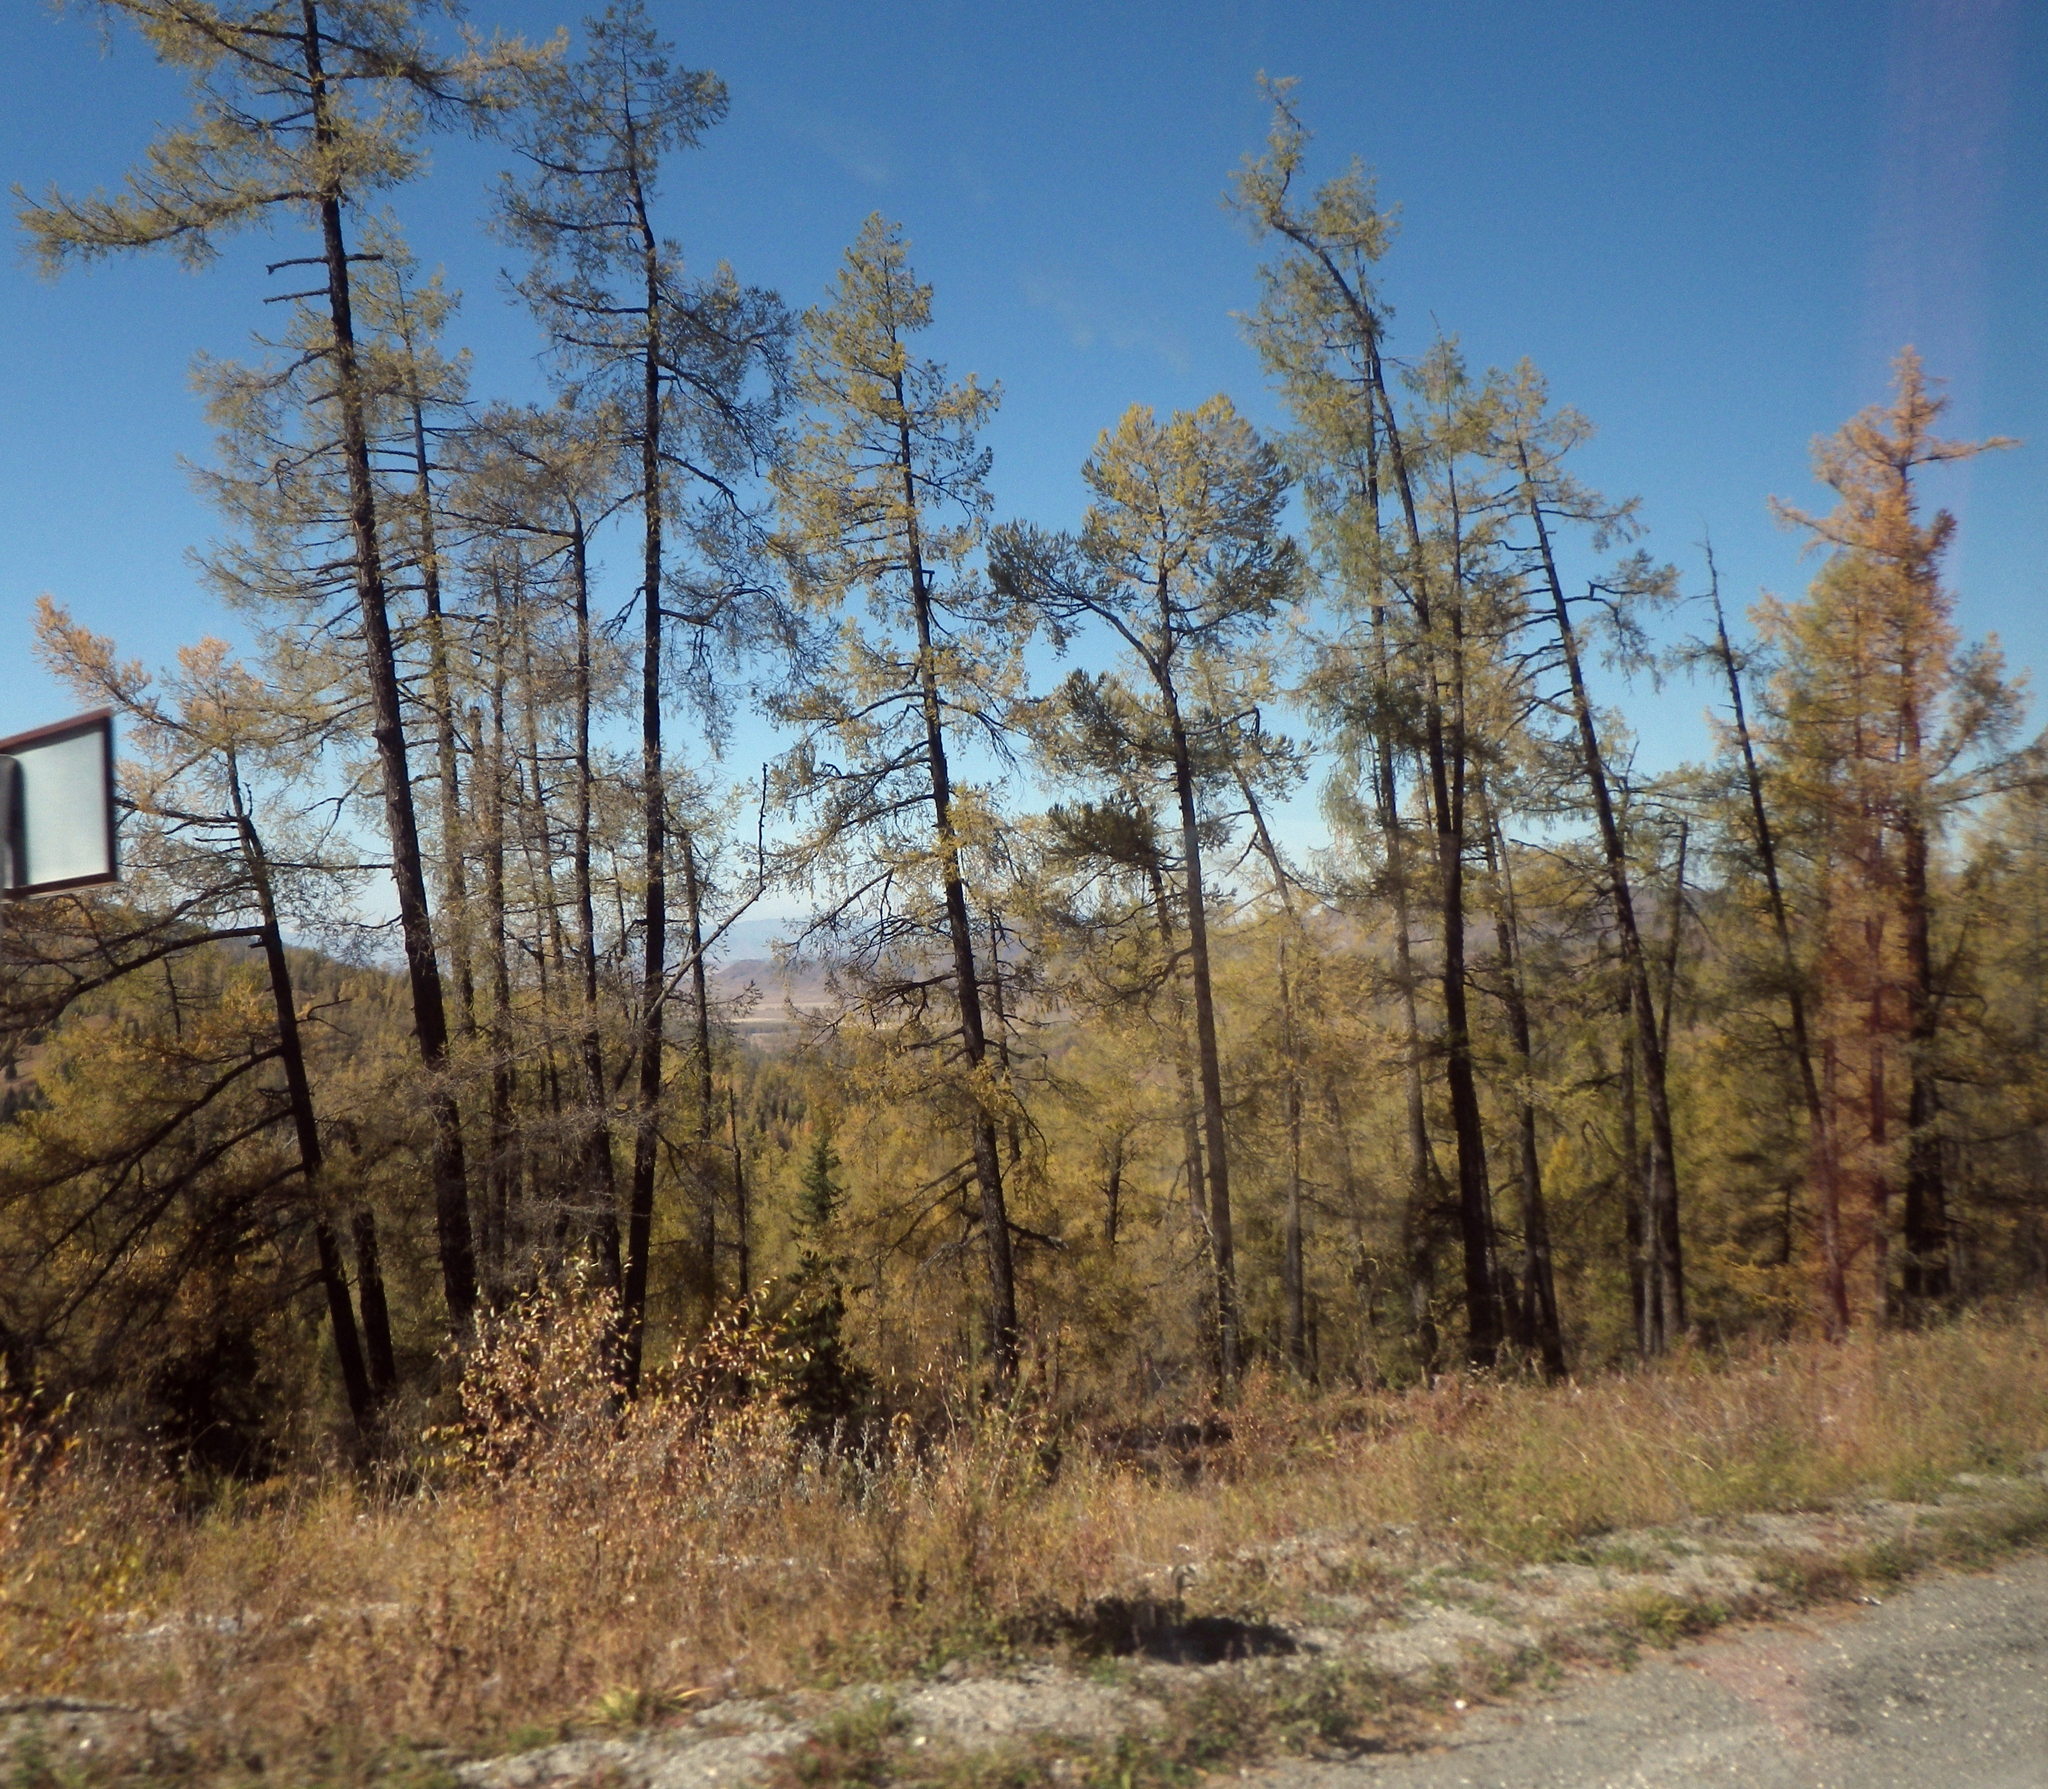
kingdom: Plantae
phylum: Tracheophyta
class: Pinopsida
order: Pinales
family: Pinaceae
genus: Larix
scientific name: Larix sibirica
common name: Siberian larch
